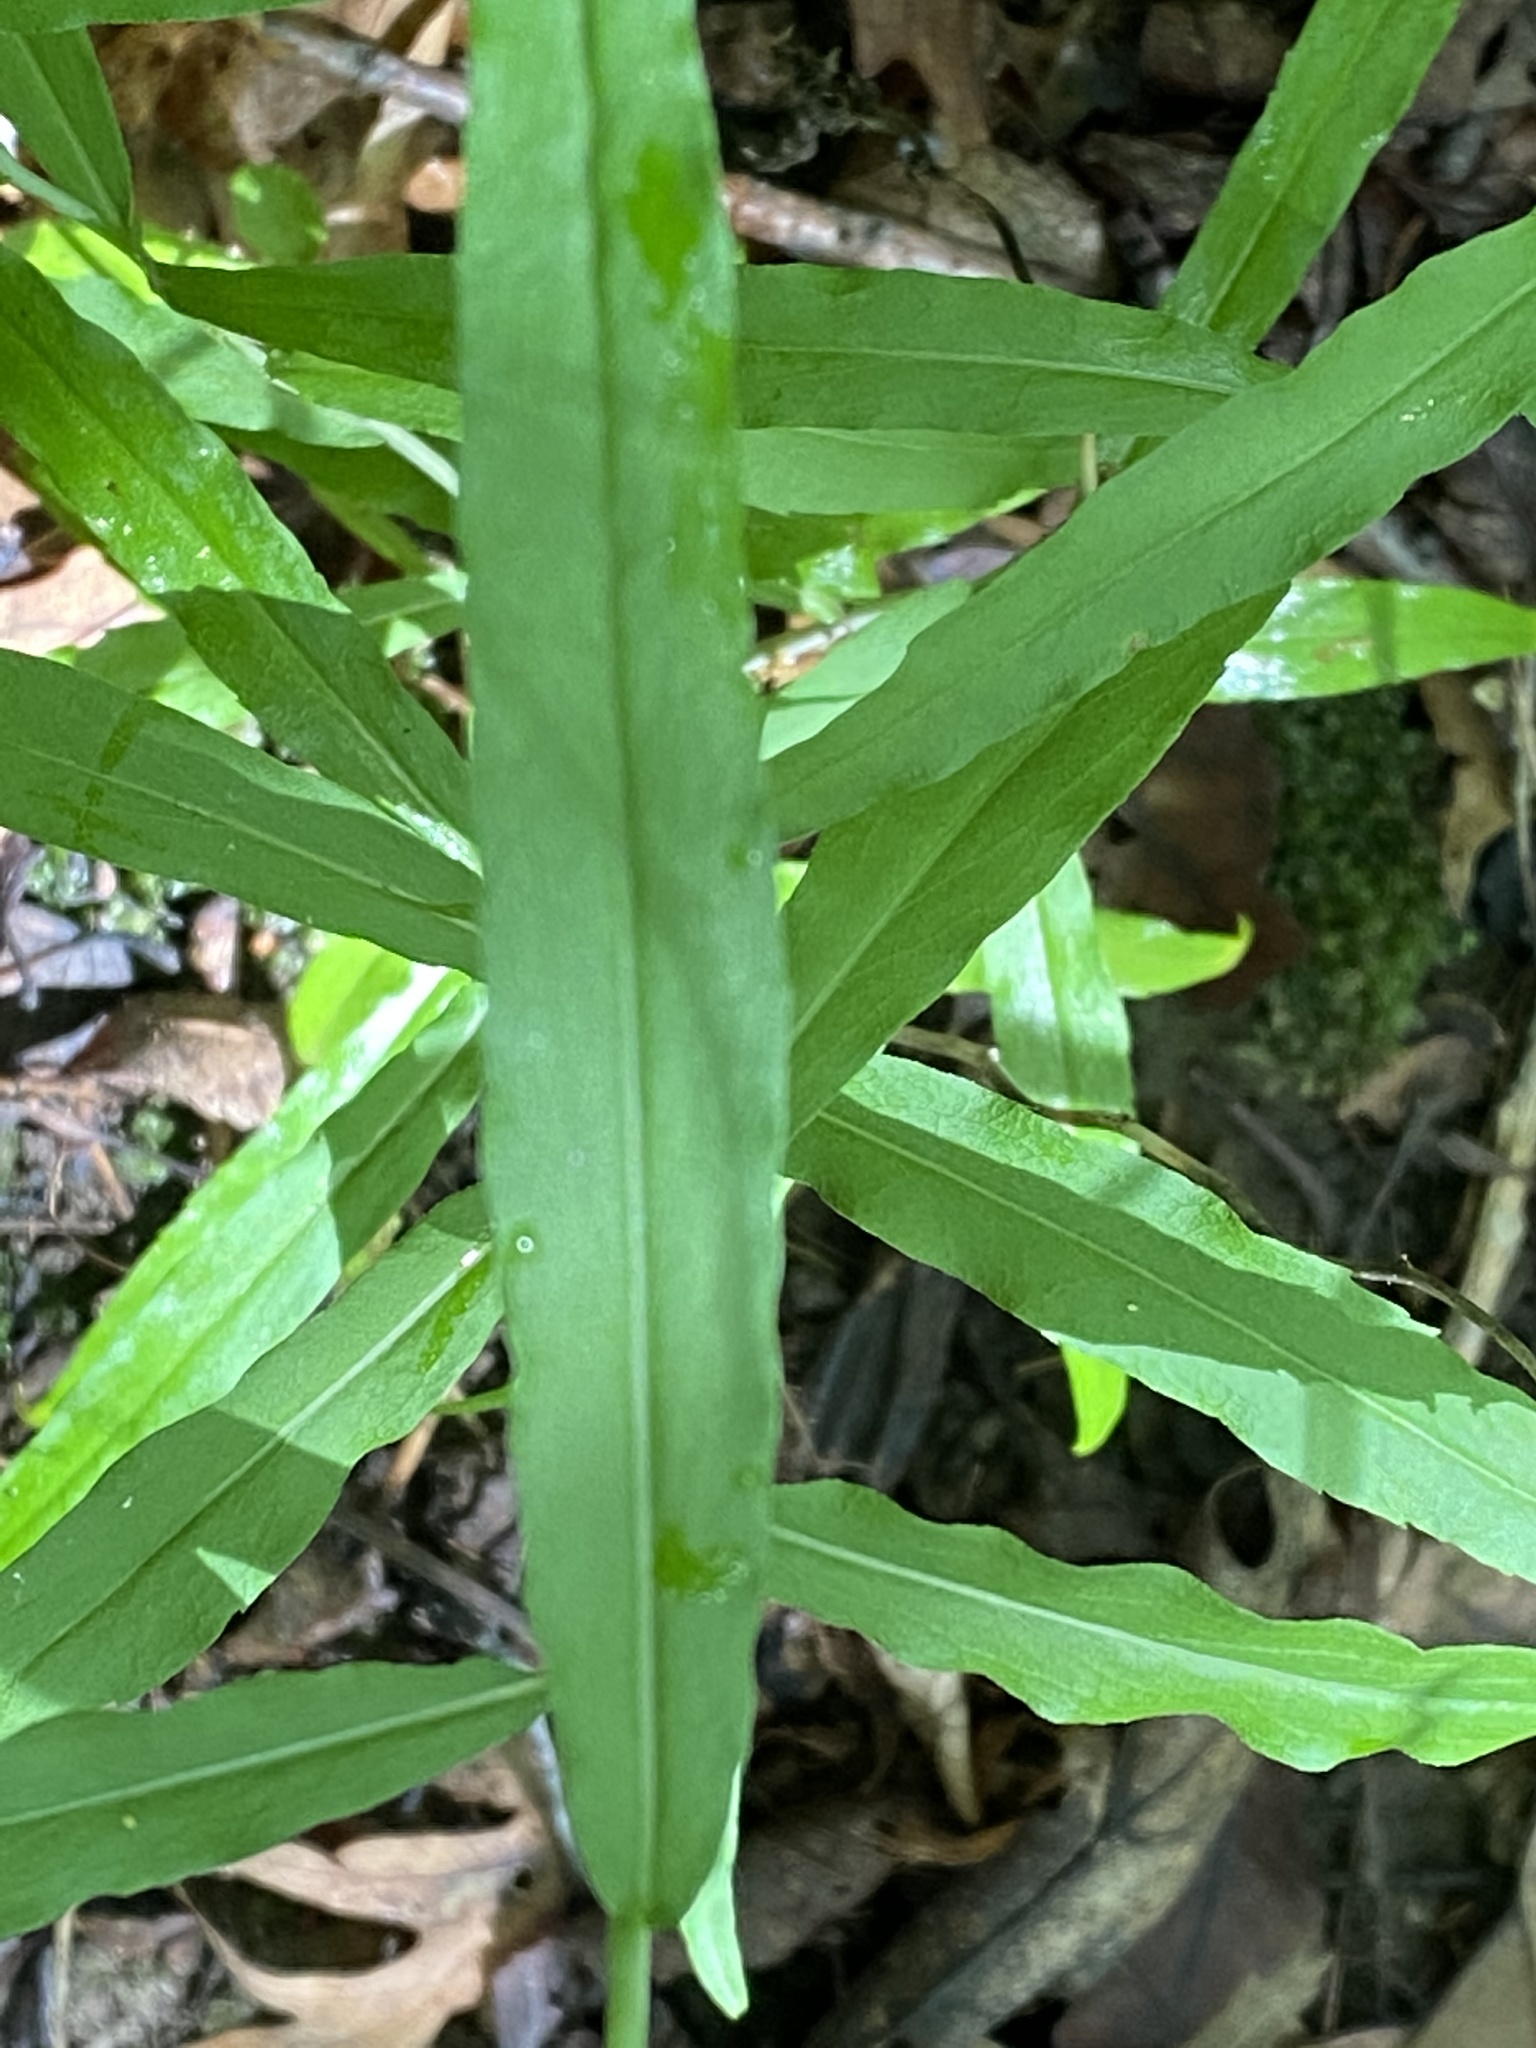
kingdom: Plantae
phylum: Tracheophyta
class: Magnoliopsida
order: Asterales
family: Asteraceae
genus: Solidago
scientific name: Solidago caesia
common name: Woodland goldenrod
